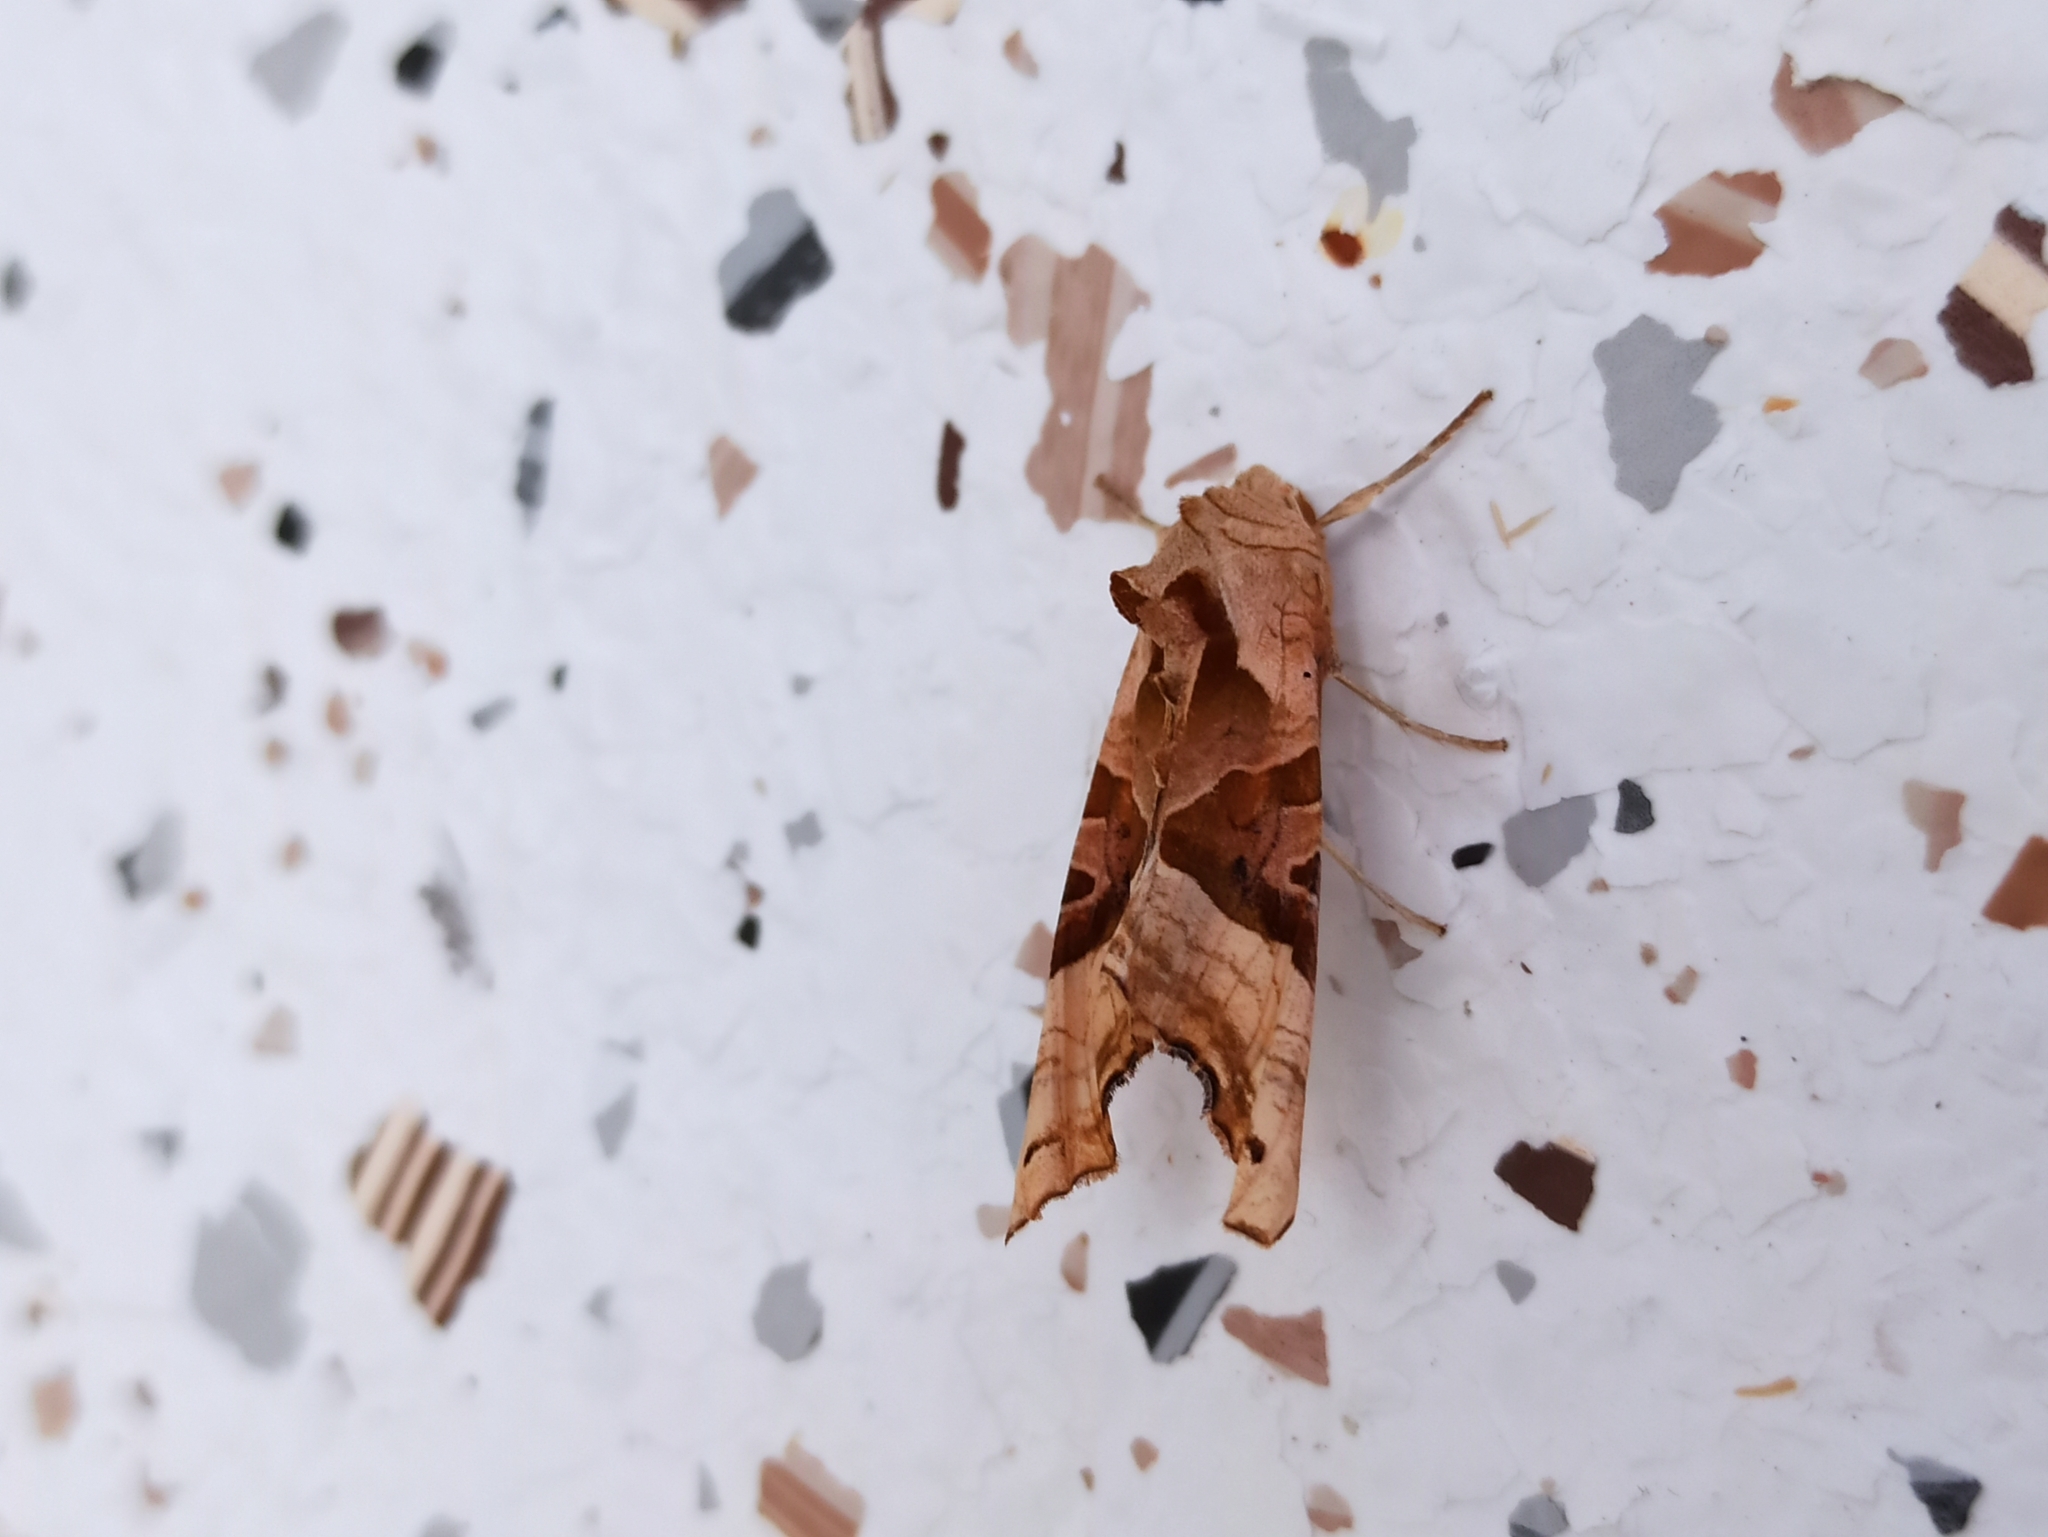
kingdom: Animalia
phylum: Arthropoda
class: Insecta
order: Lepidoptera
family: Noctuidae
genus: Phlogophora
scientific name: Phlogophora meticulosa
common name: Angle shades
